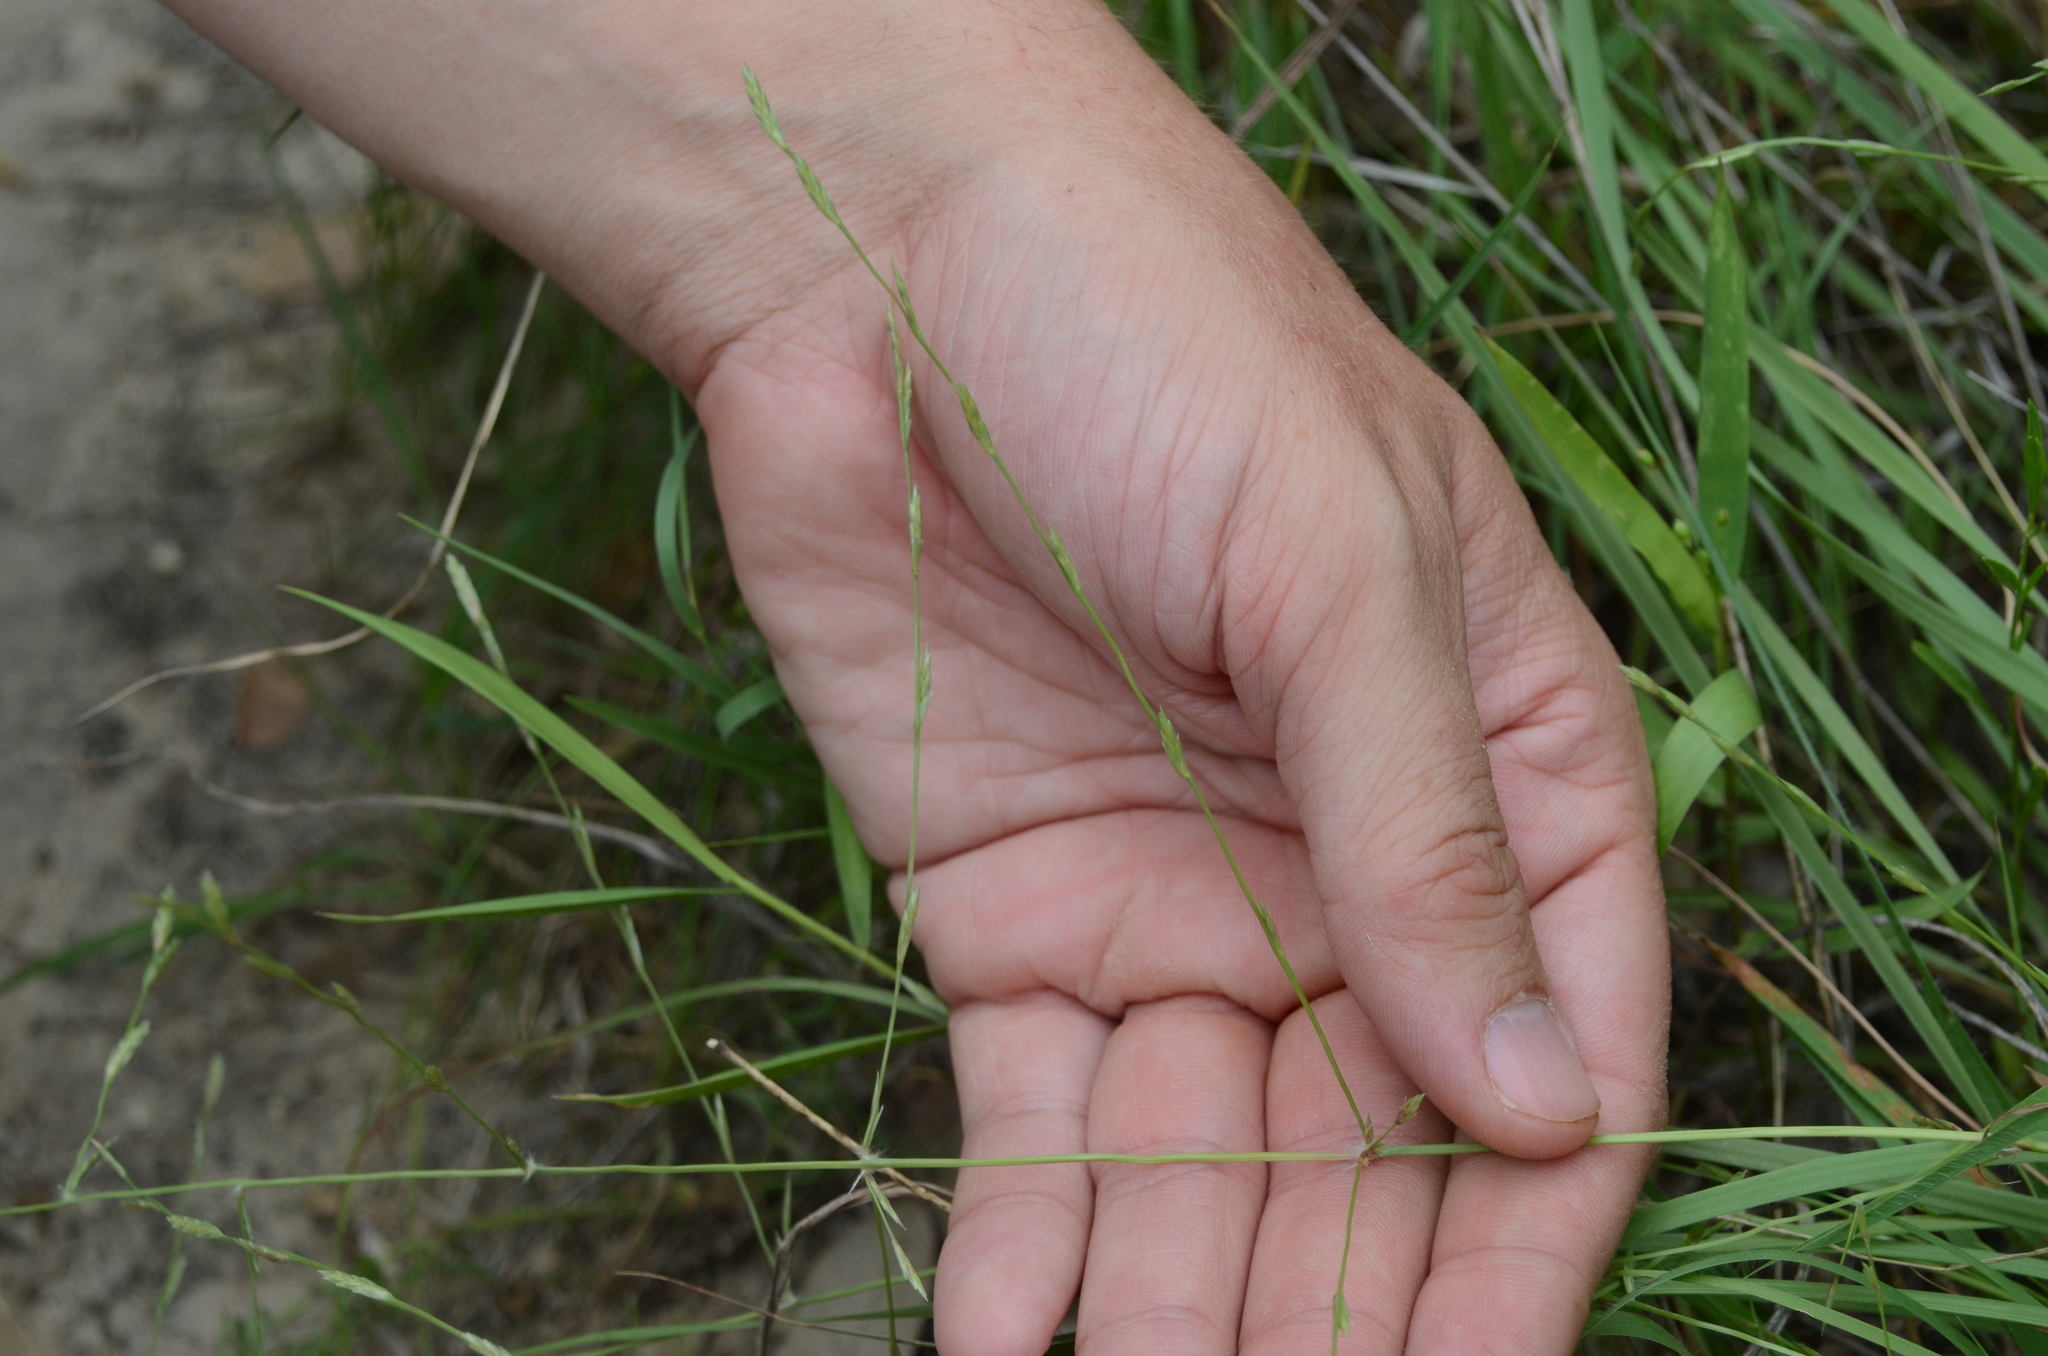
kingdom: Plantae
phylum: Tracheophyta
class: Liliopsida
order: Poales
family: Poaceae
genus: Eragrostis
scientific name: Eragrostis sessilispica
